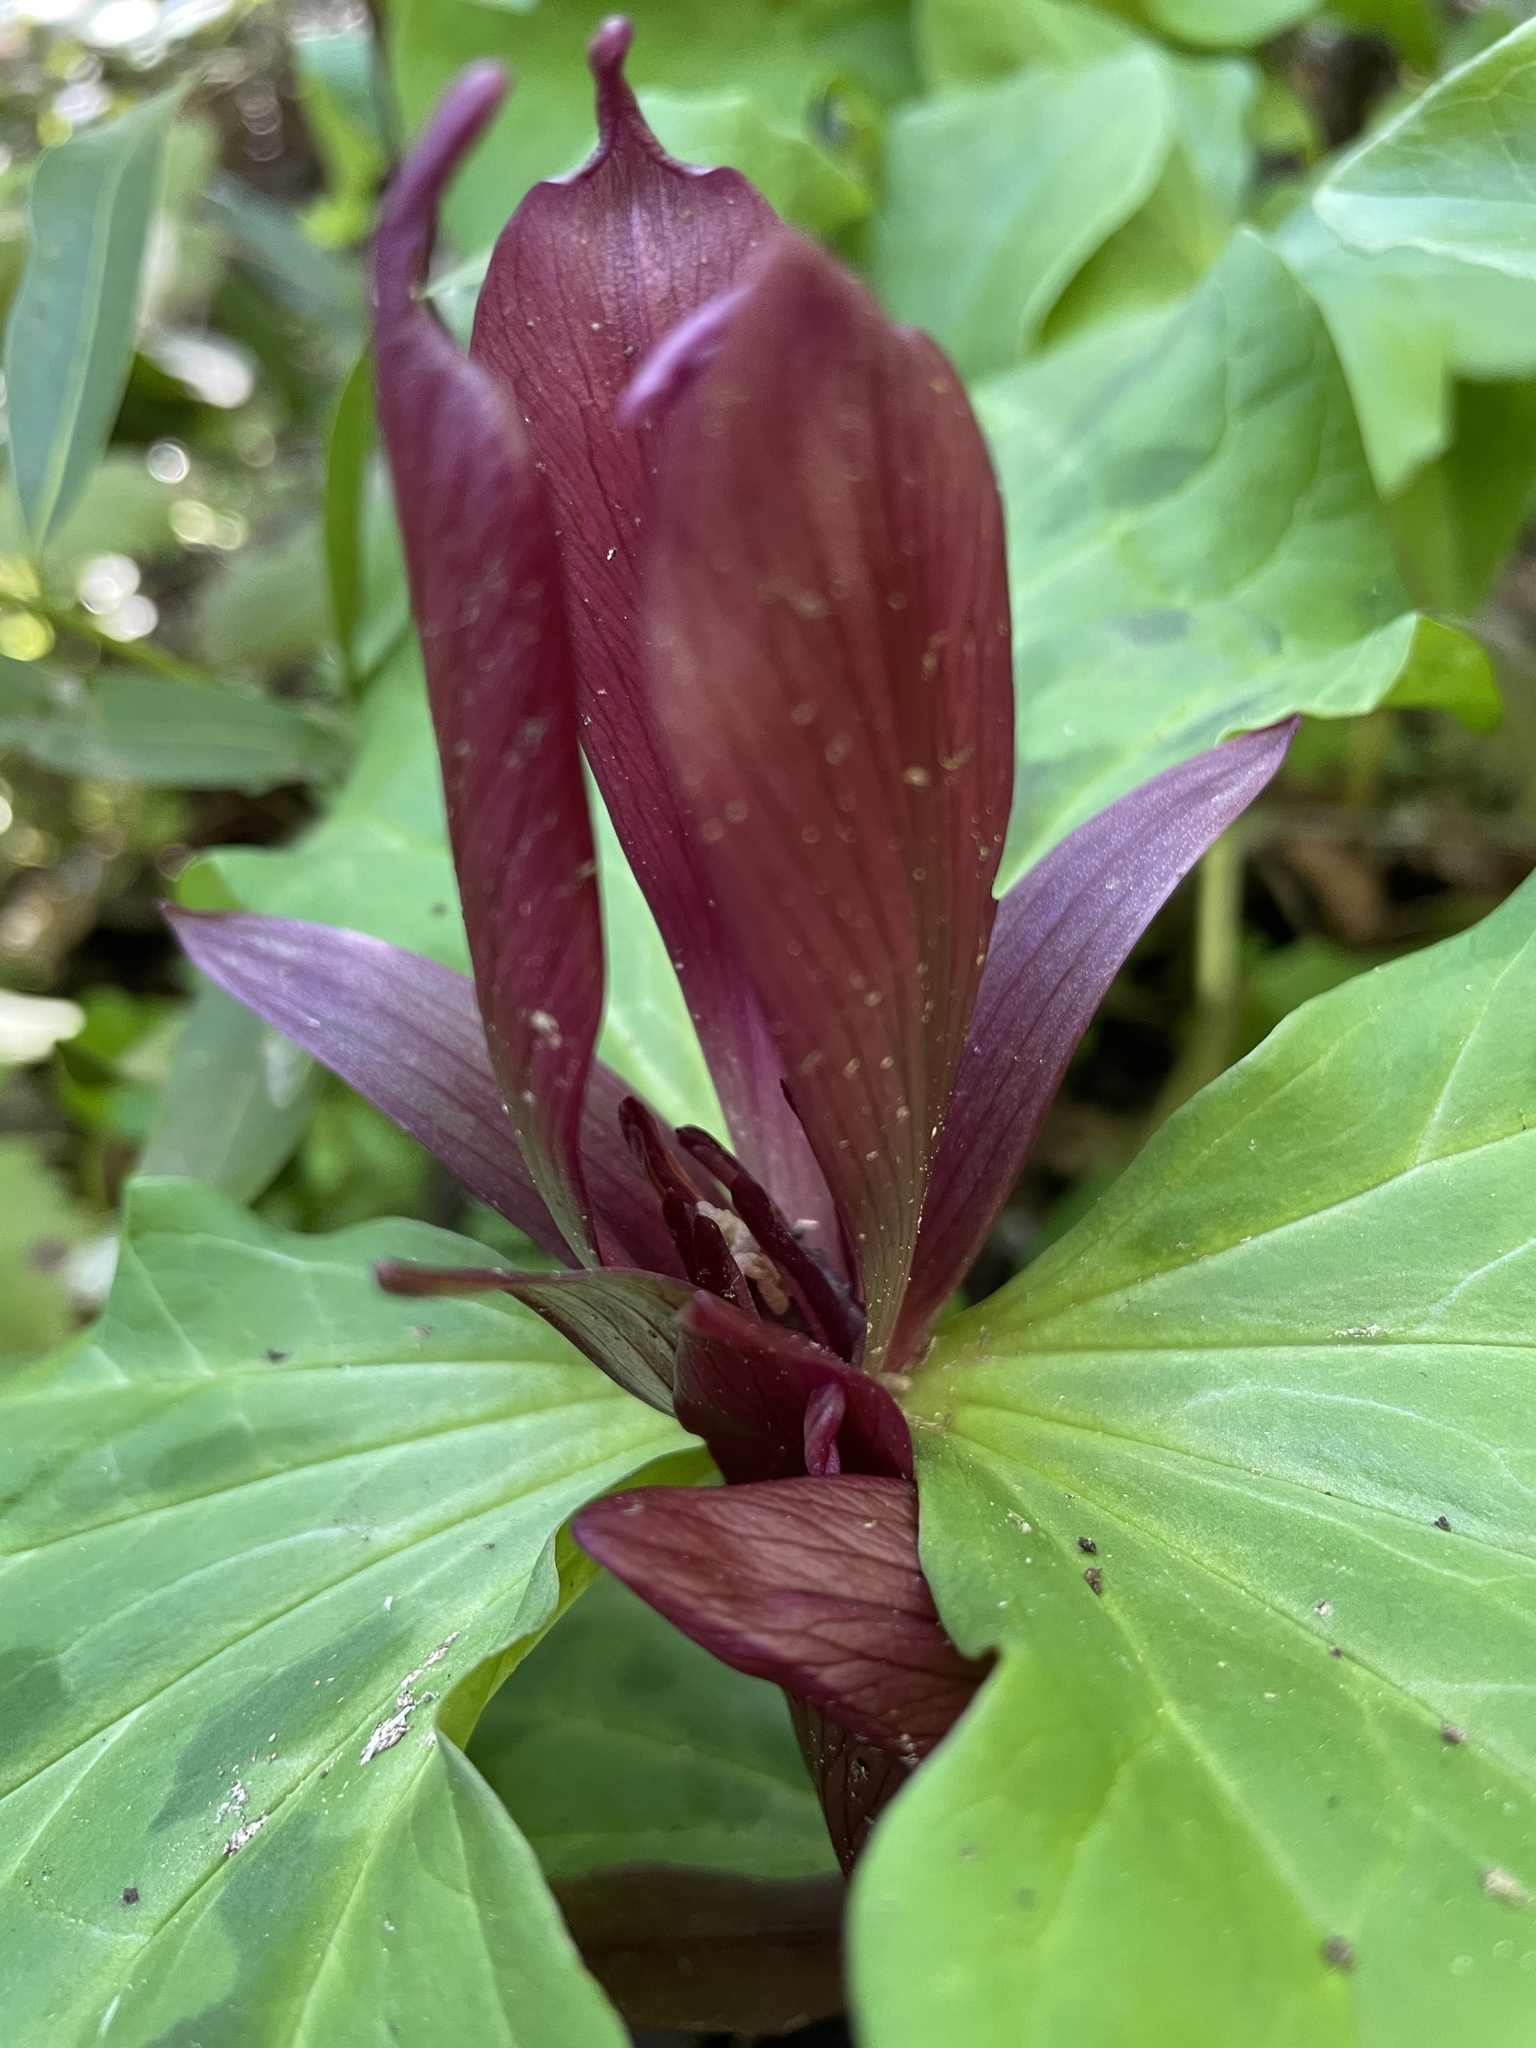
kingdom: Plantae
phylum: Tracheophyta
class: Liliopsida
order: Liliales
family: Melanthiaceae
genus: Trillium
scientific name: Trillium chloropetalum
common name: Giant trillium
